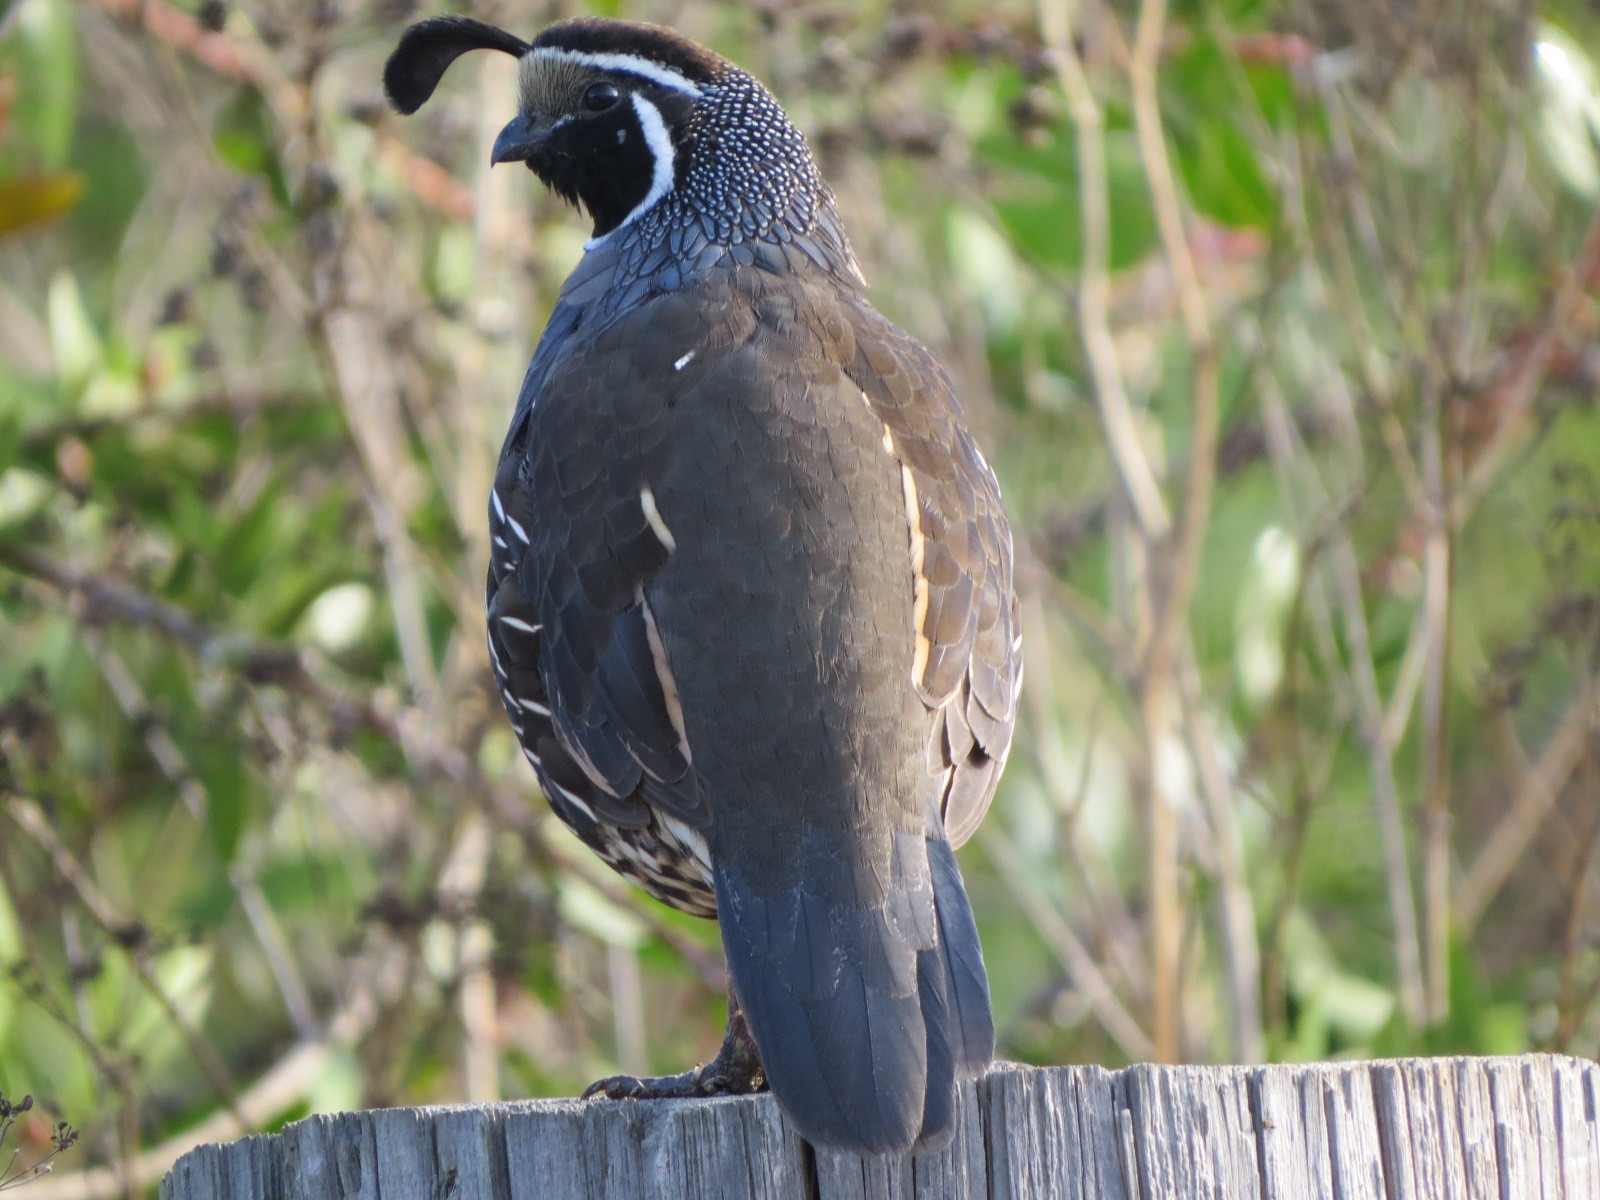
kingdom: Animalia
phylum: Chordata
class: Aves
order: Galliformes
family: Odontophoridae
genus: Callipepla
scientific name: Callipepla californica
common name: California quail
